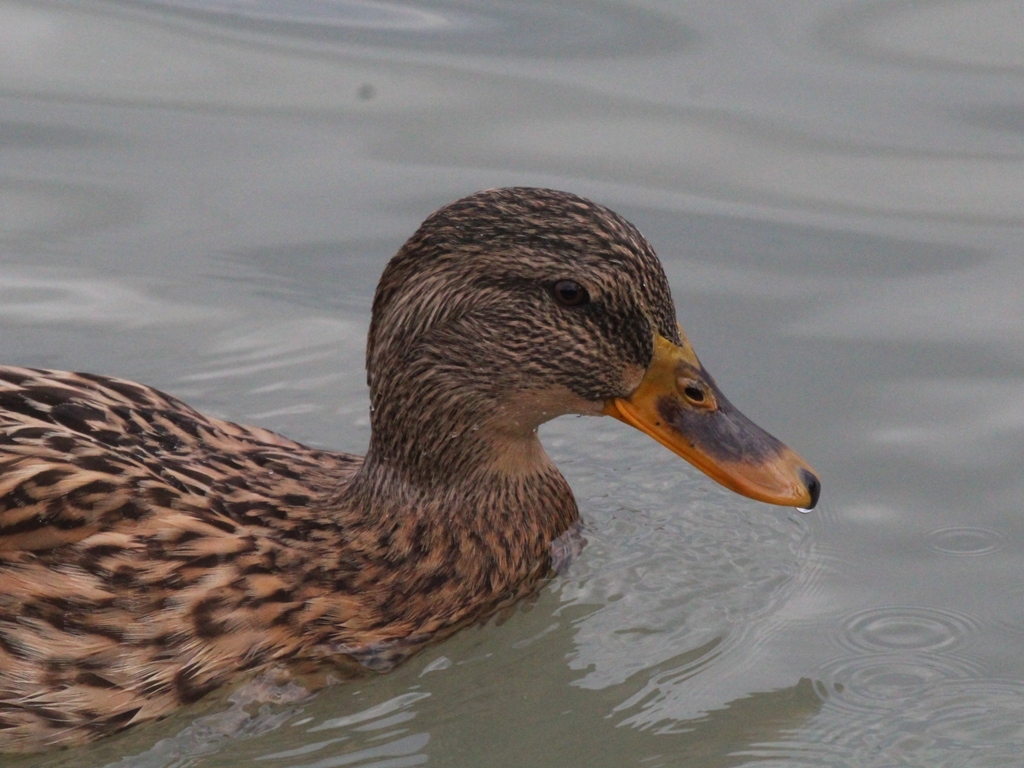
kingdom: Animalia
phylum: Chordata
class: Aves
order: Anseriformes
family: Anatidae
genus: Anas
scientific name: Anas platyrhynchos
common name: Mallard
